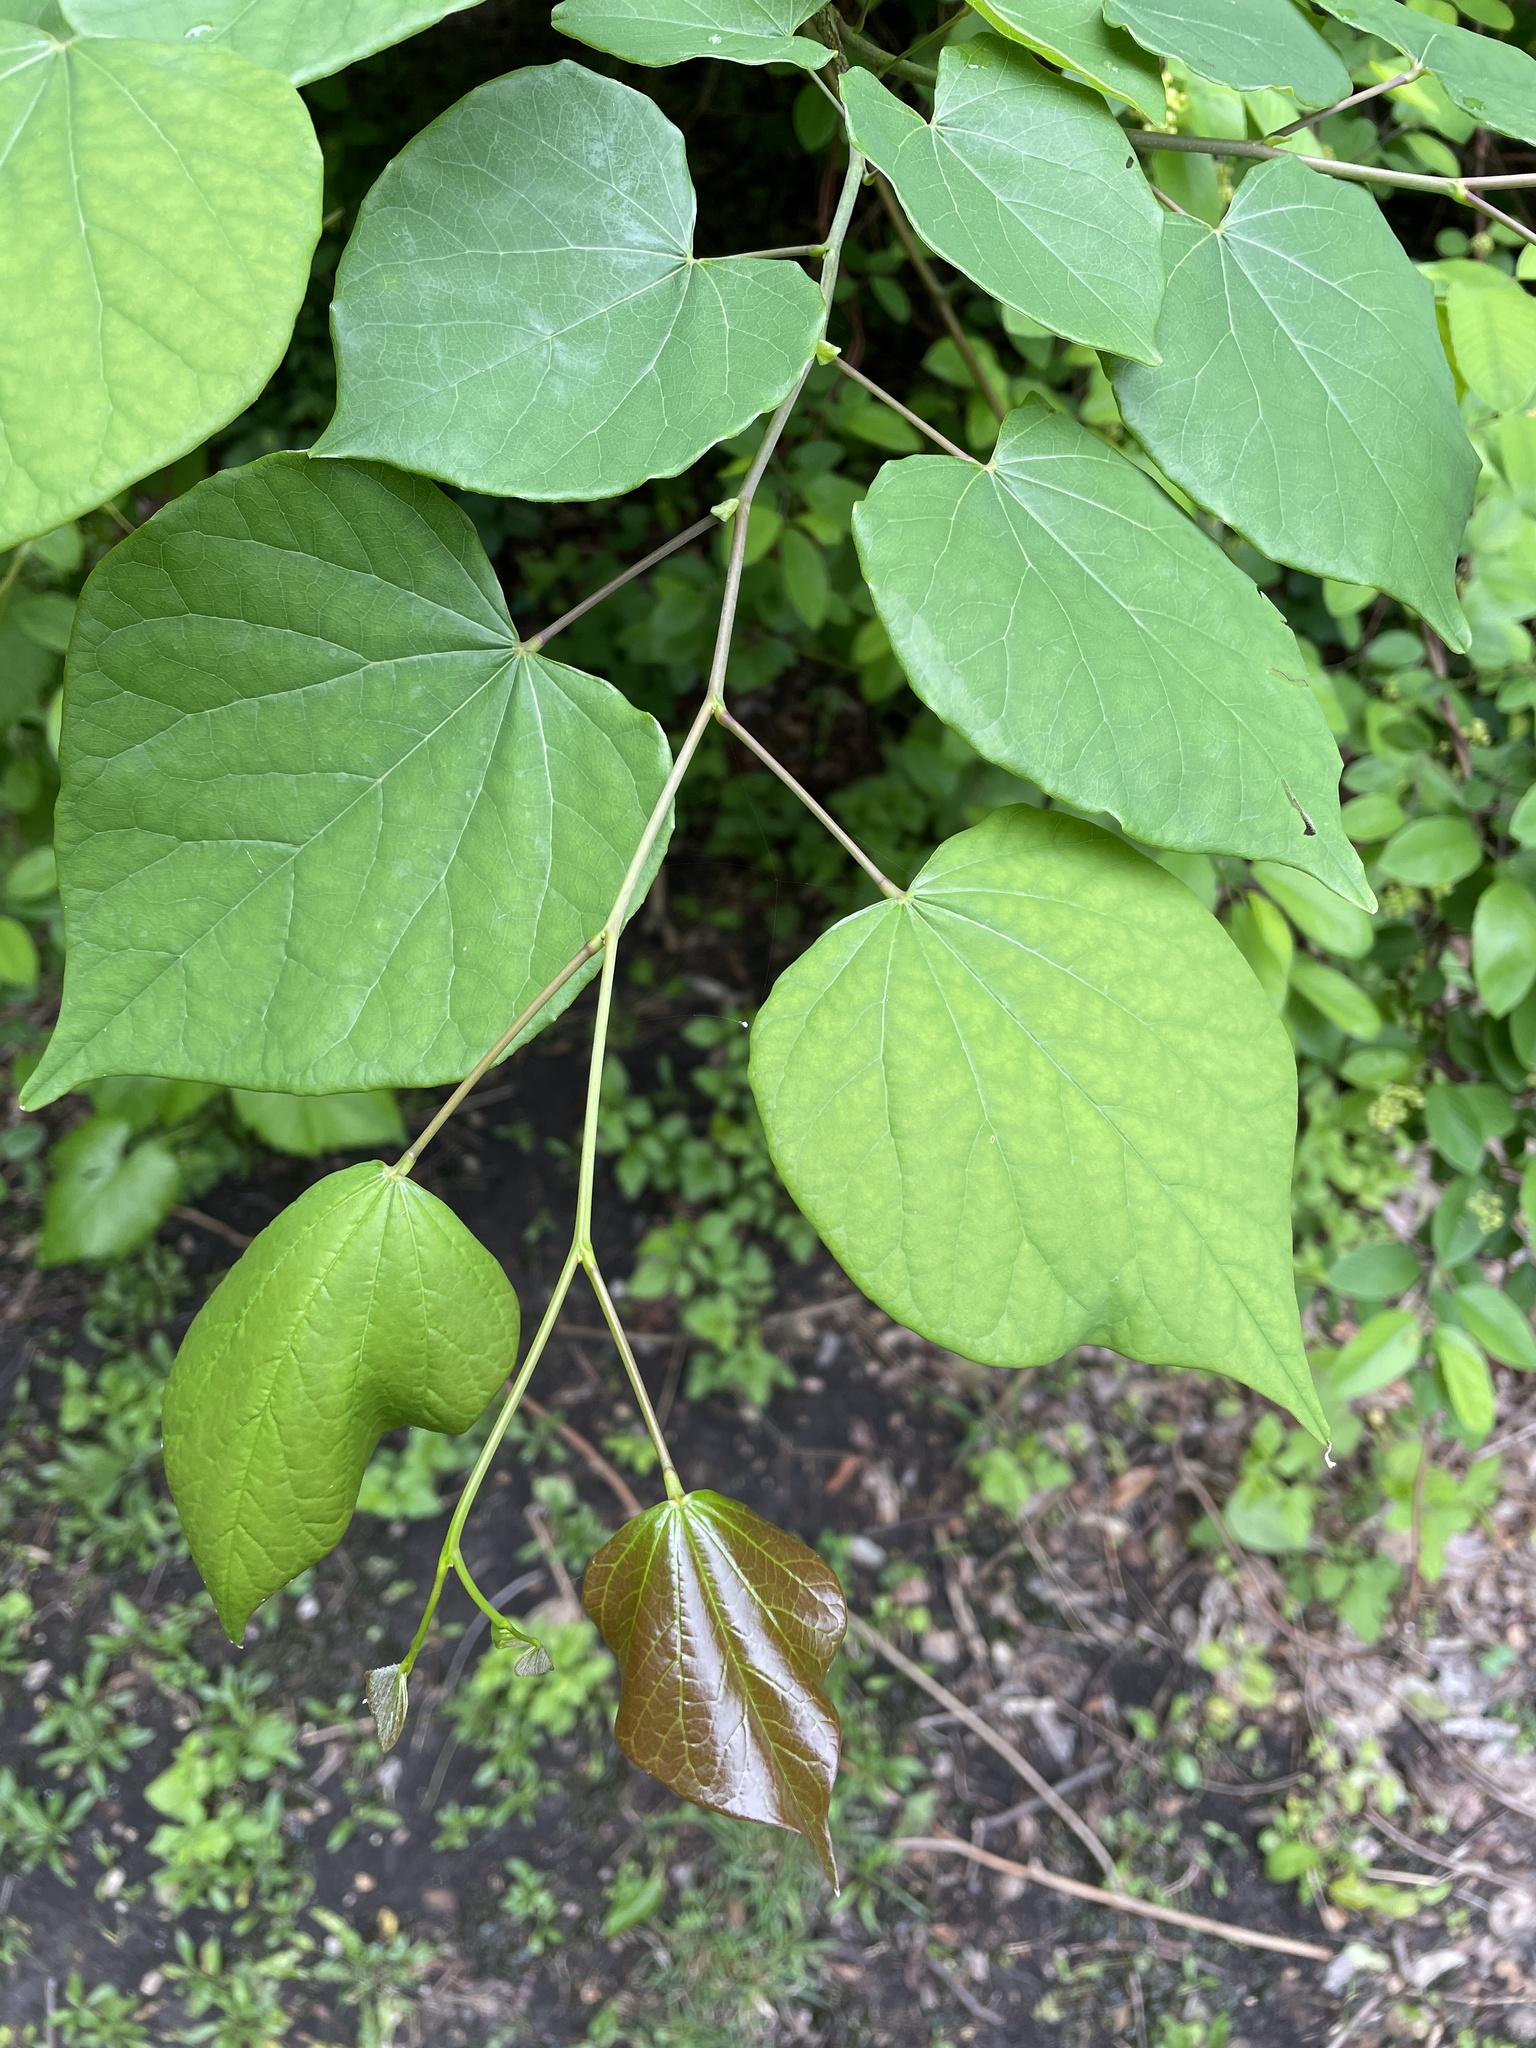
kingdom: Plantae
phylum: Tracheophyta
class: Magnoliopsida
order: Fabales
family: Fabaceae
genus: Cercis
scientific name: Cercis canadensis
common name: Eastern redbud
